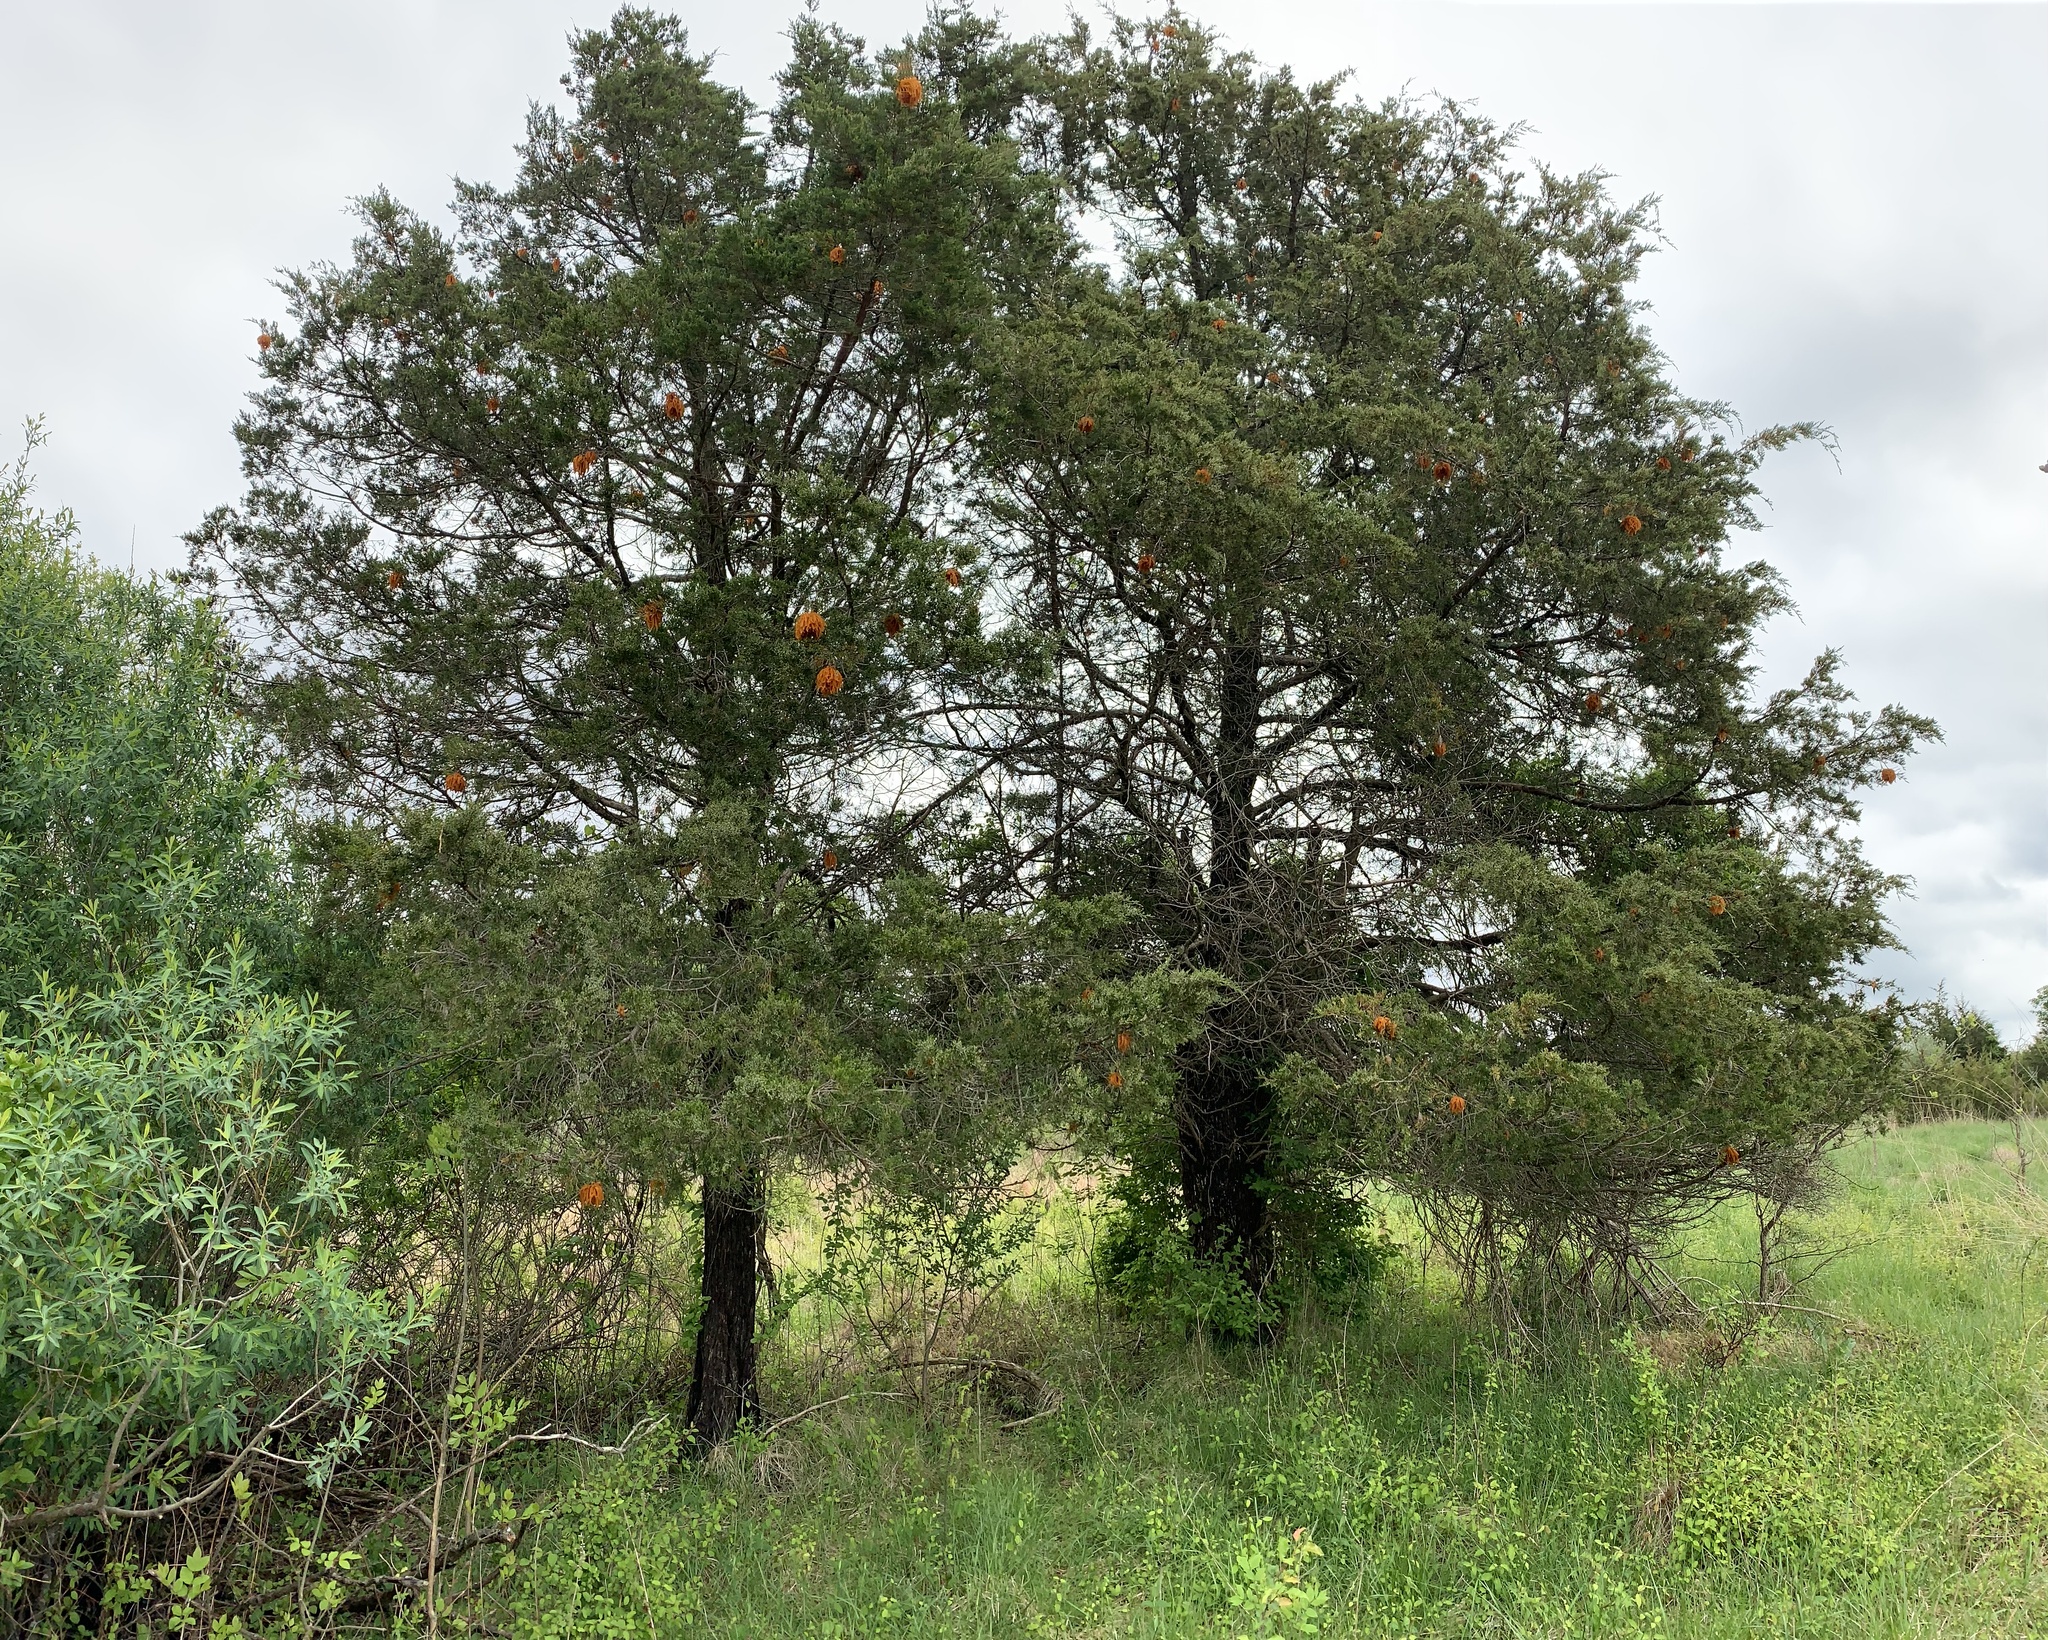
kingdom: Fungi
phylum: Basidiomycota
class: Pucciniomycetes
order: Pucciniales
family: Gymnosporangiaceae
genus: Gymnosporangium
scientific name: Gymnosporangium juniperi-virginianae
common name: Juniper-apple rust
